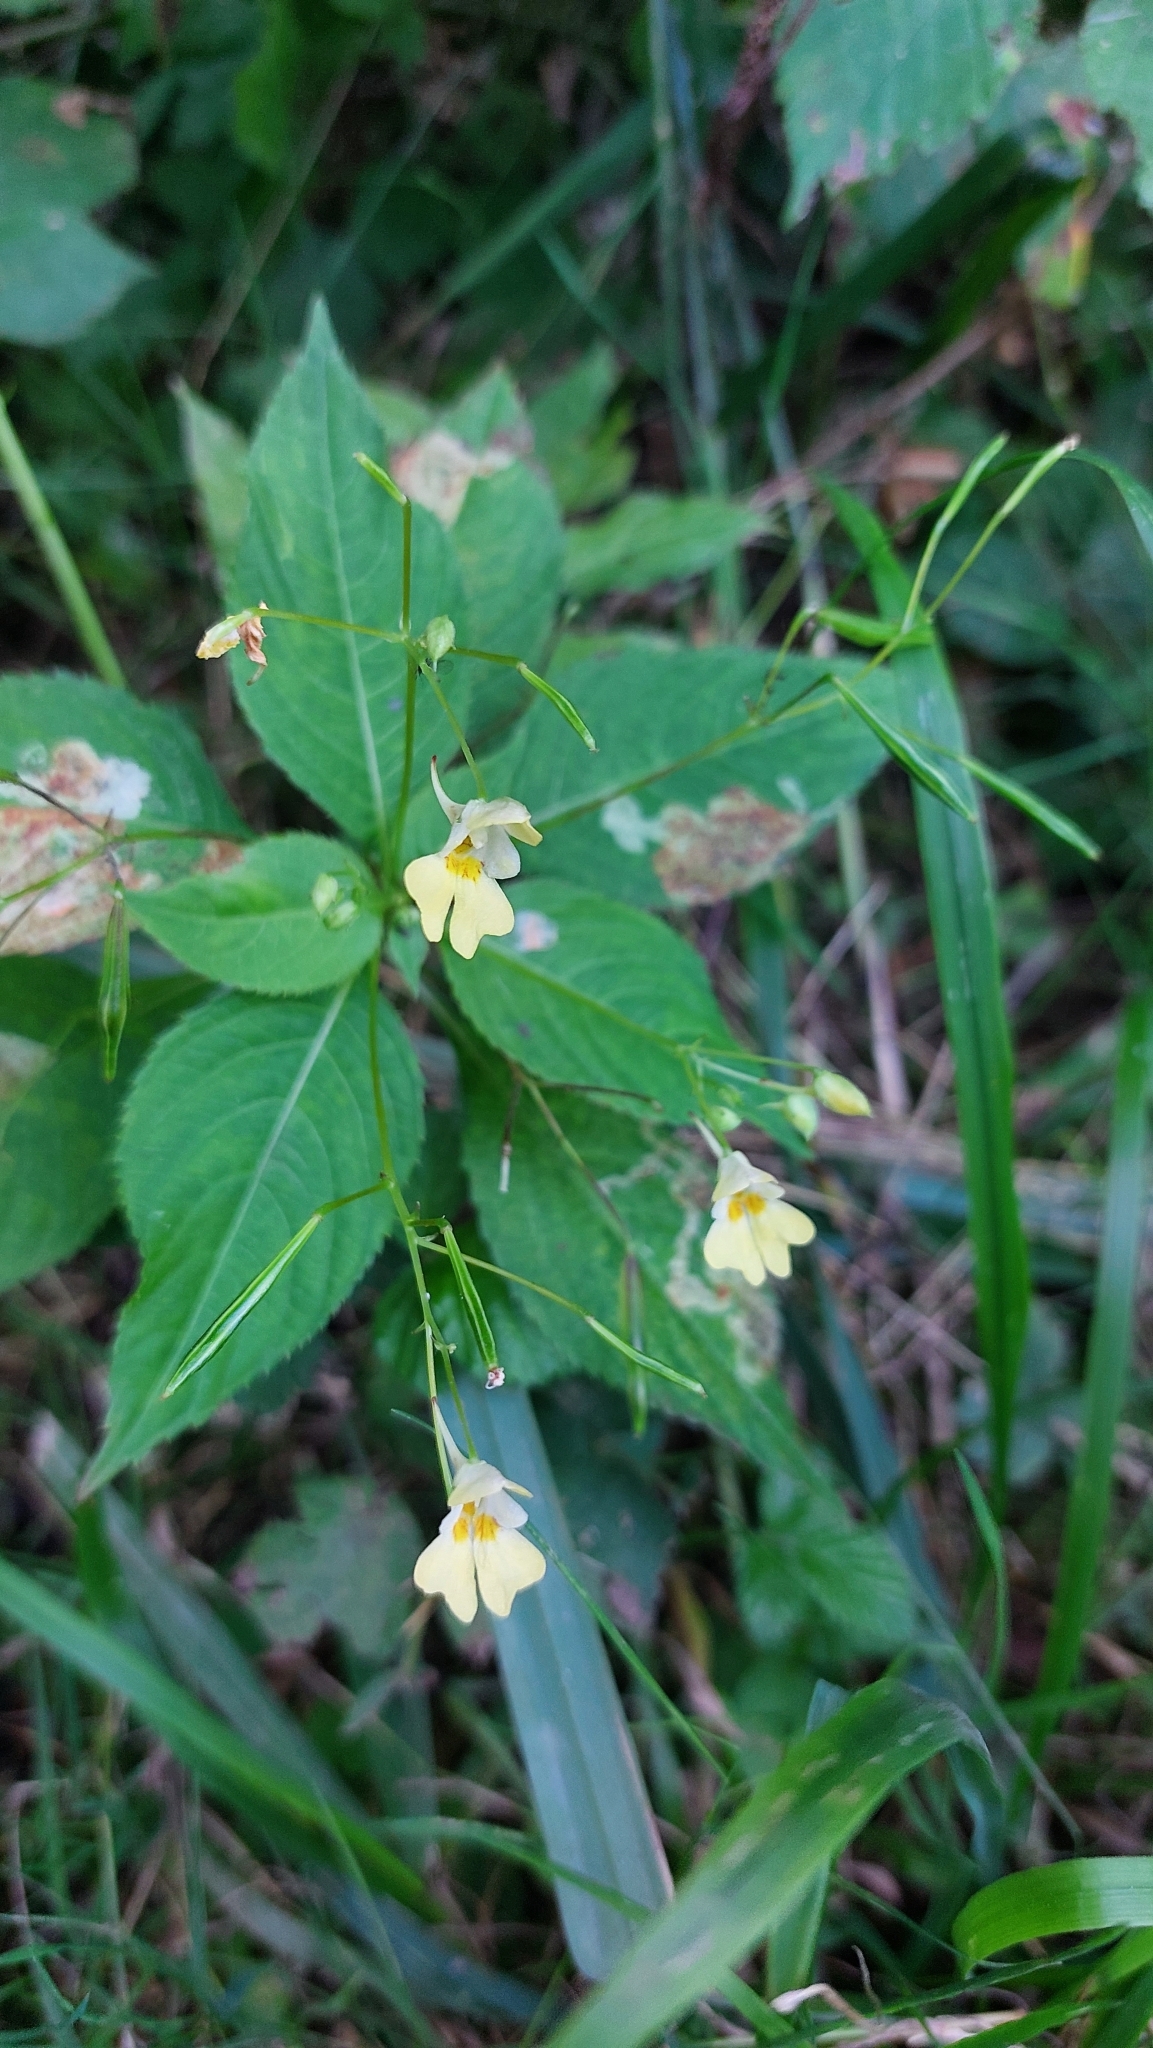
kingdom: Plantae
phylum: Tracheophyta
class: Magnoliopsida
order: Ericales
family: Balsaminaceae
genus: Impatiens
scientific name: Impatiens parviflora
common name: Small balsam
